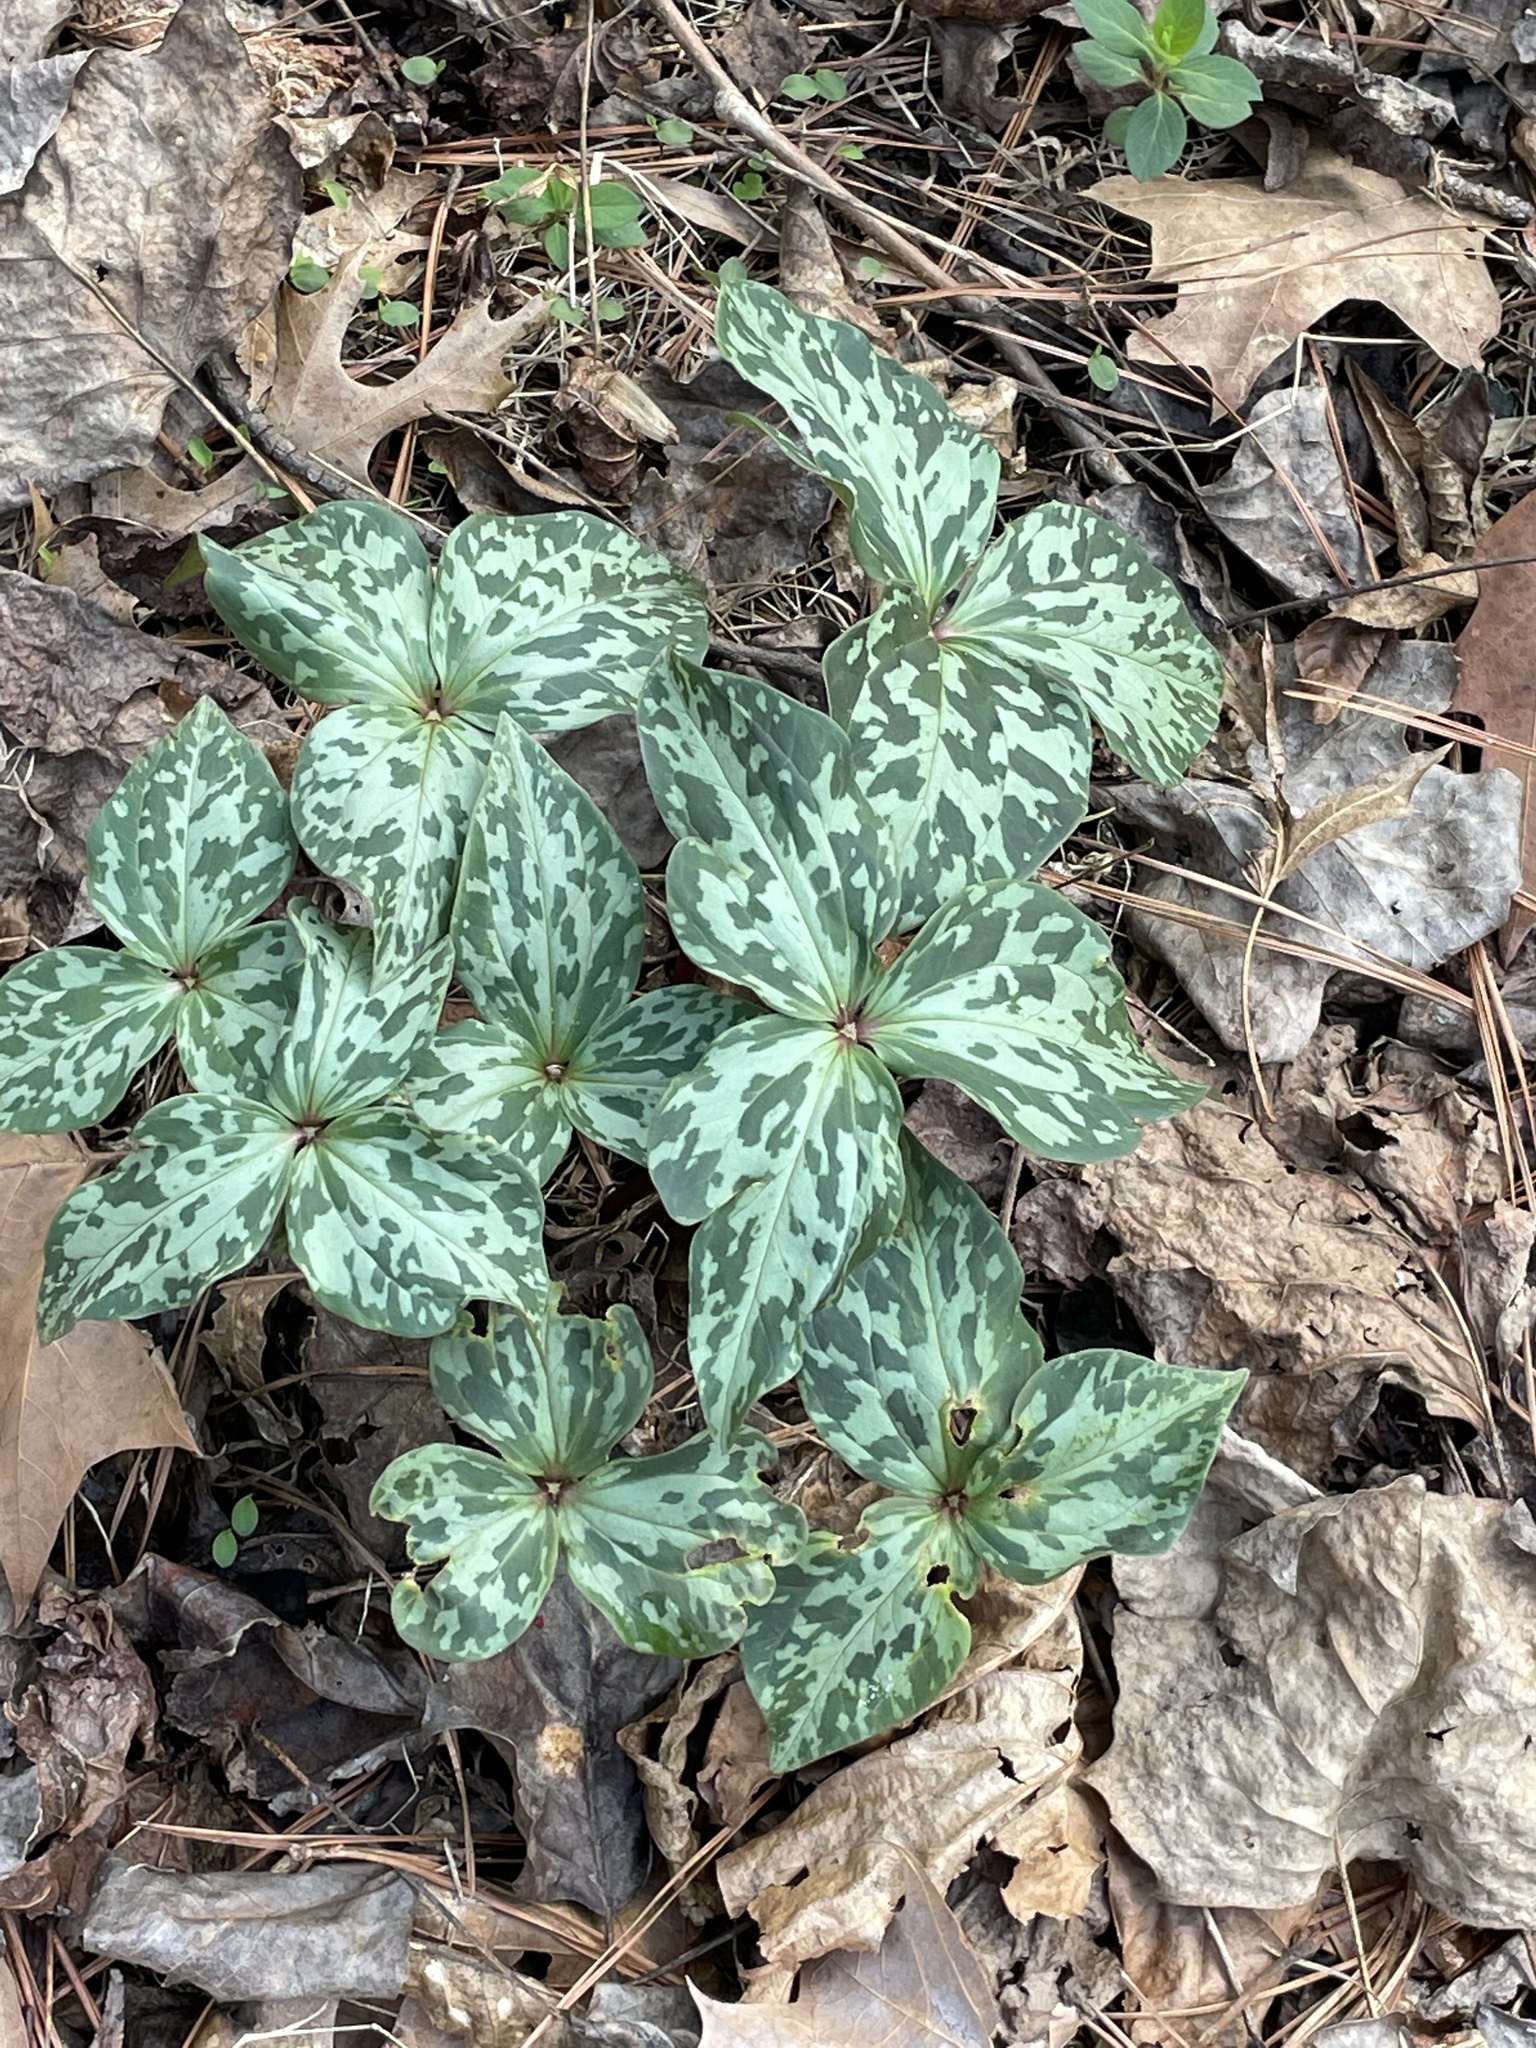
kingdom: Plantae
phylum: Tracheophyta
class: Liliopsida
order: Liliales
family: Melanthiaceae
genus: Trillium
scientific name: Trillium cuneatum
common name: Cuneate trillium
